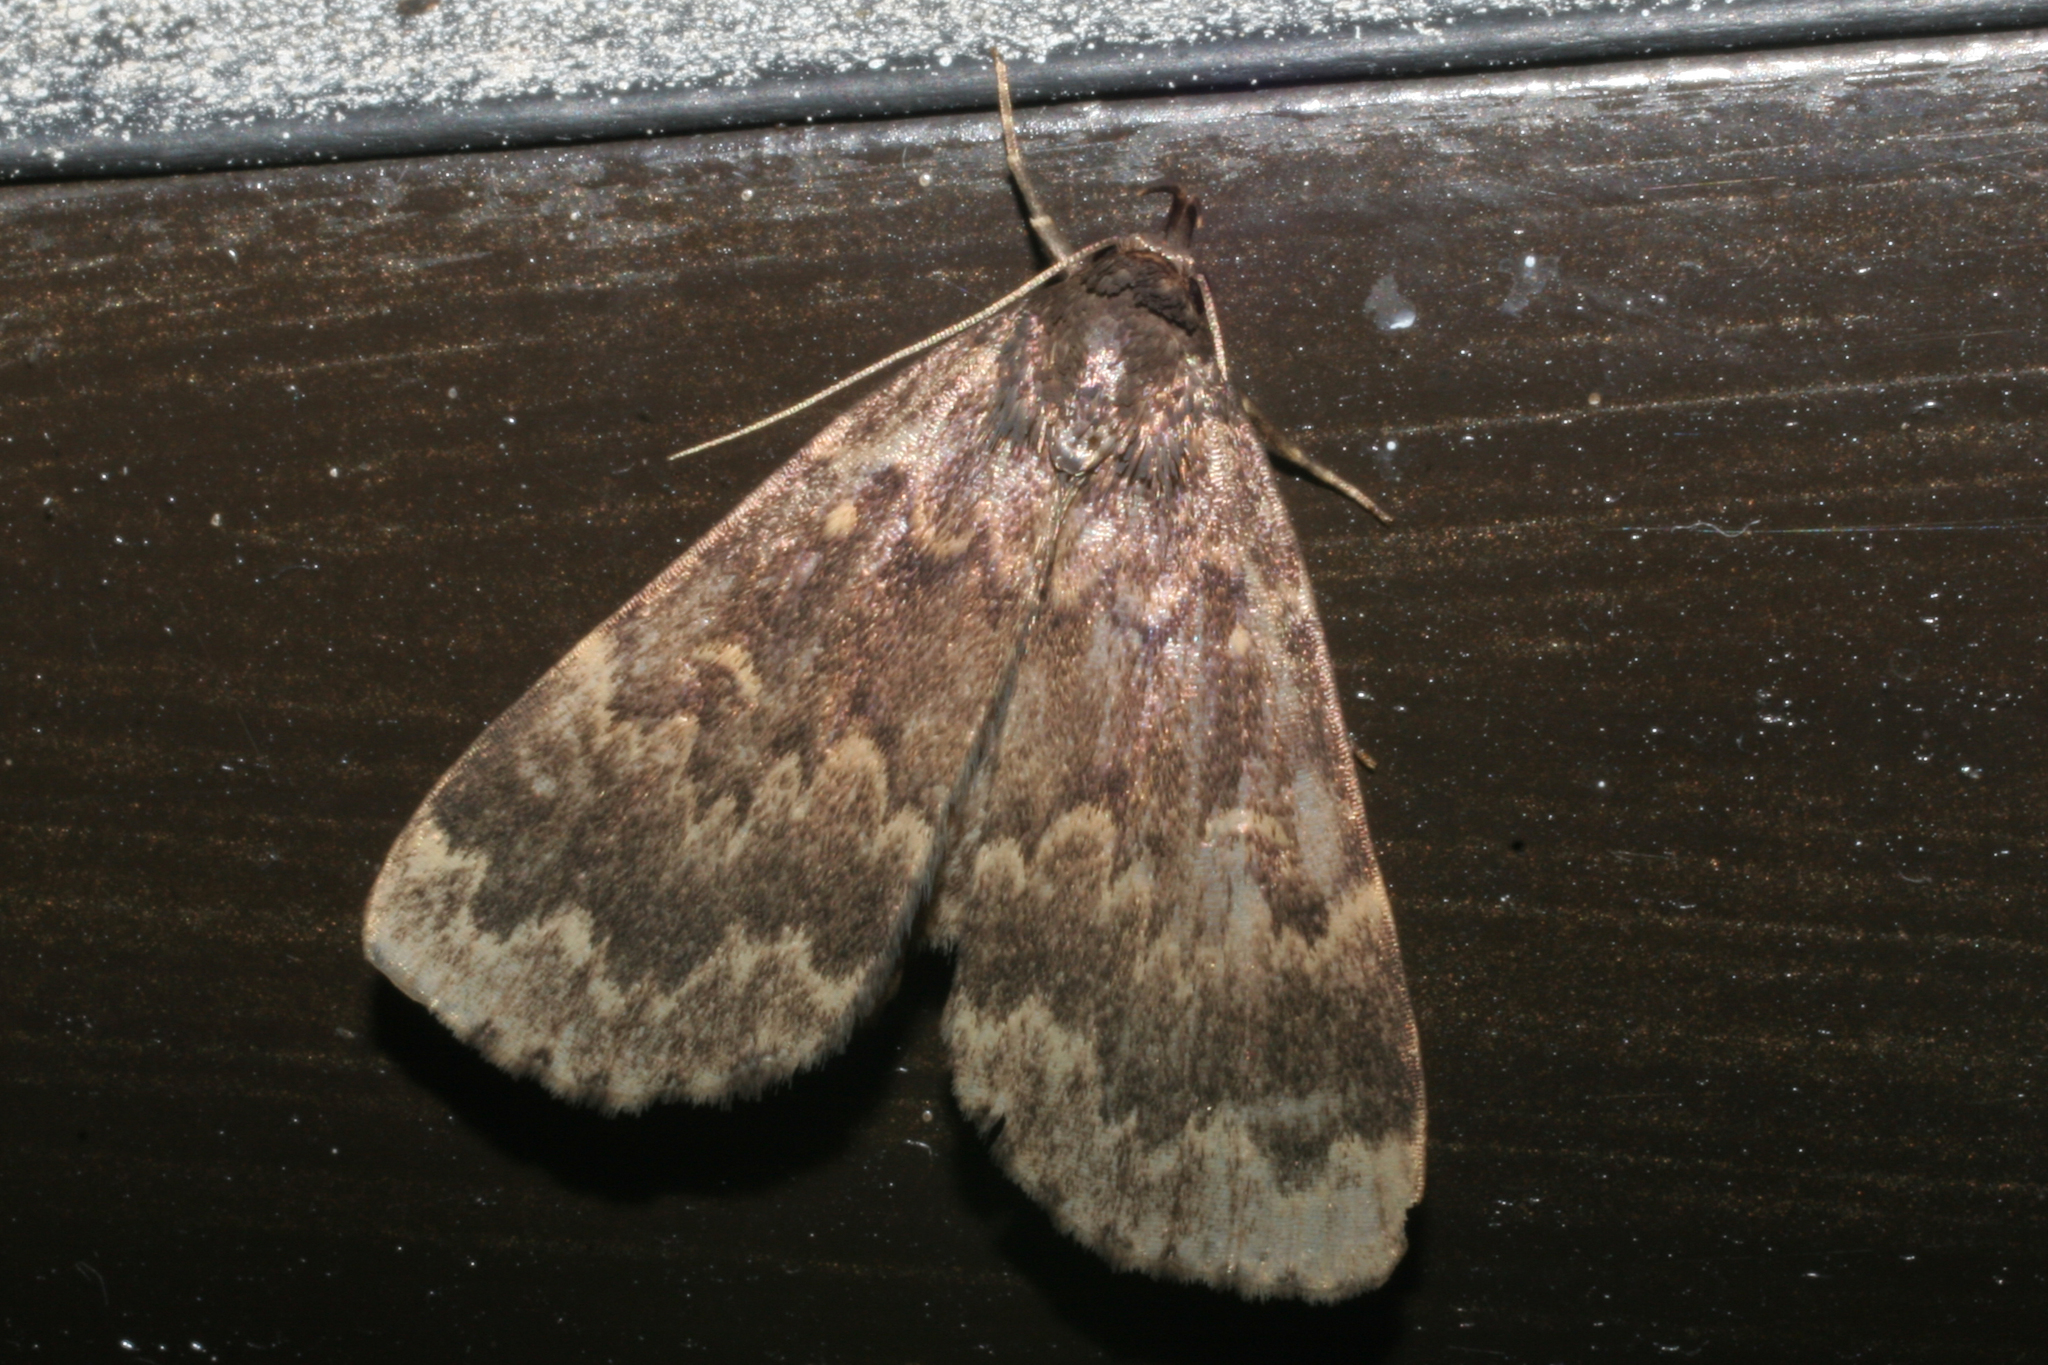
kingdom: Animalia
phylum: Arthropoda
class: Insecta
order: Lepidoptera
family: Erebidae
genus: Idia
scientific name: Idia lubricalis
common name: Twin-striped tabby
